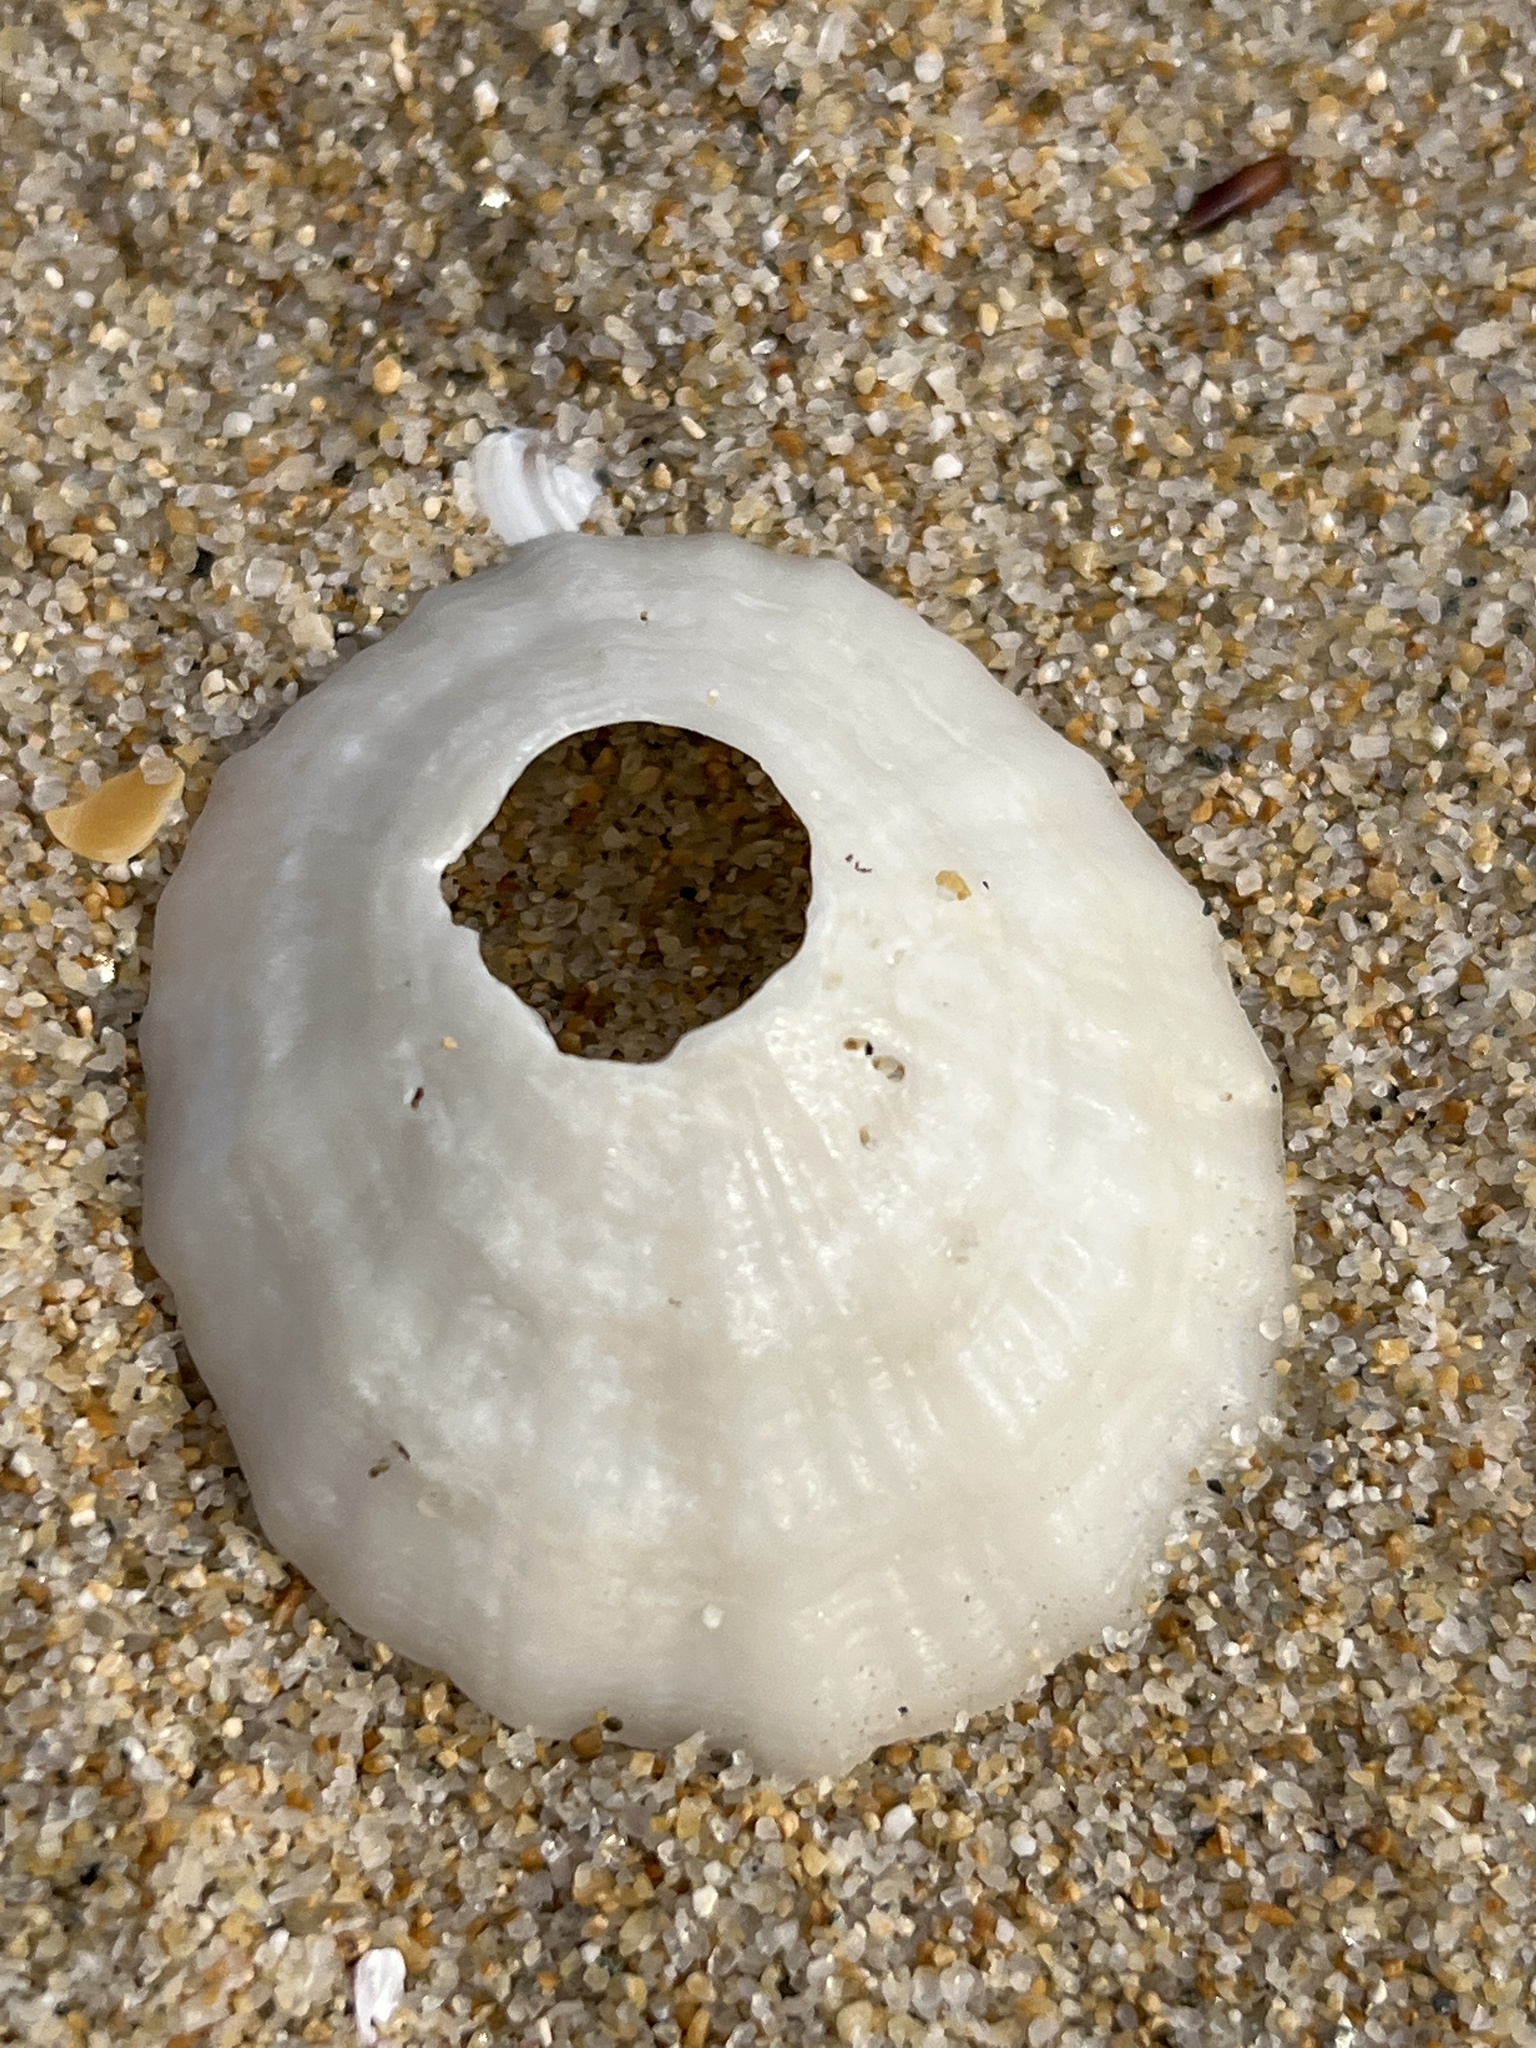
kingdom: Animalia
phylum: Mollusca
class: Gastropoda
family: Lottiidae
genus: Niveotectura
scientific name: Niveotectura pallida
